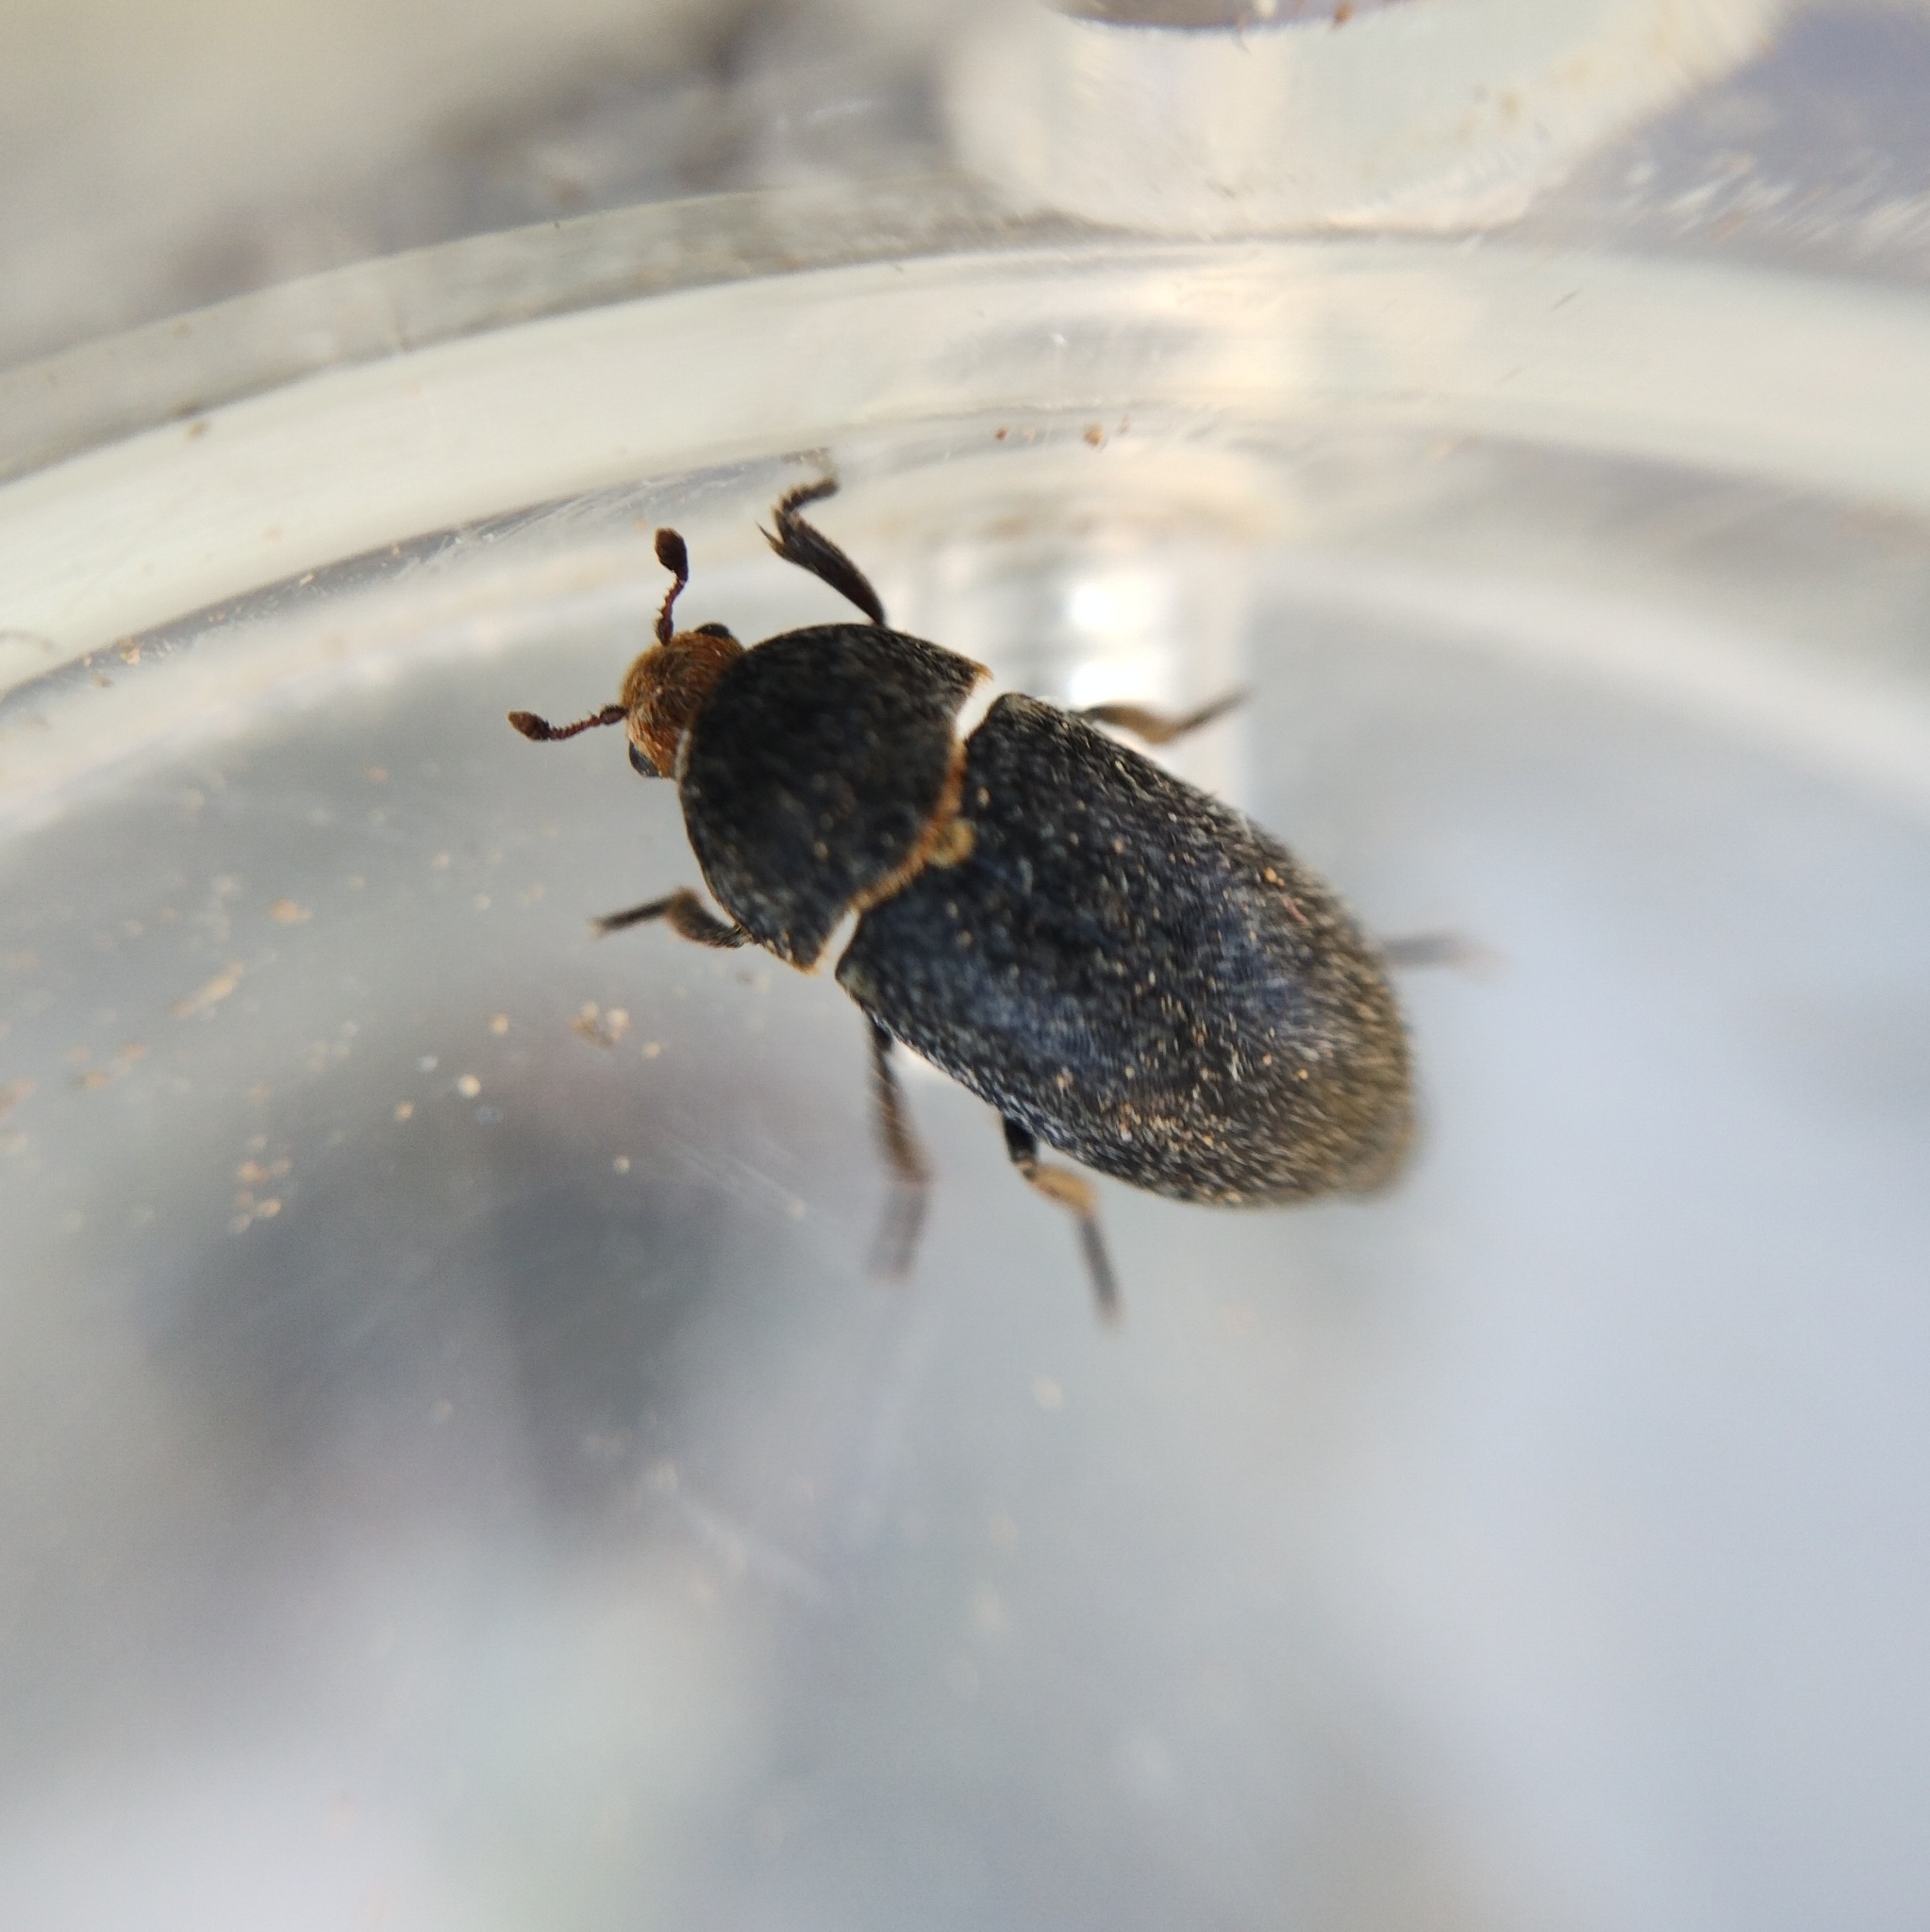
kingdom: Animalia
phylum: Arthropoda
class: Insecta
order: Coleoptera
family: Dermestidae
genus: Dermestes
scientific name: Dermestes laniarius
